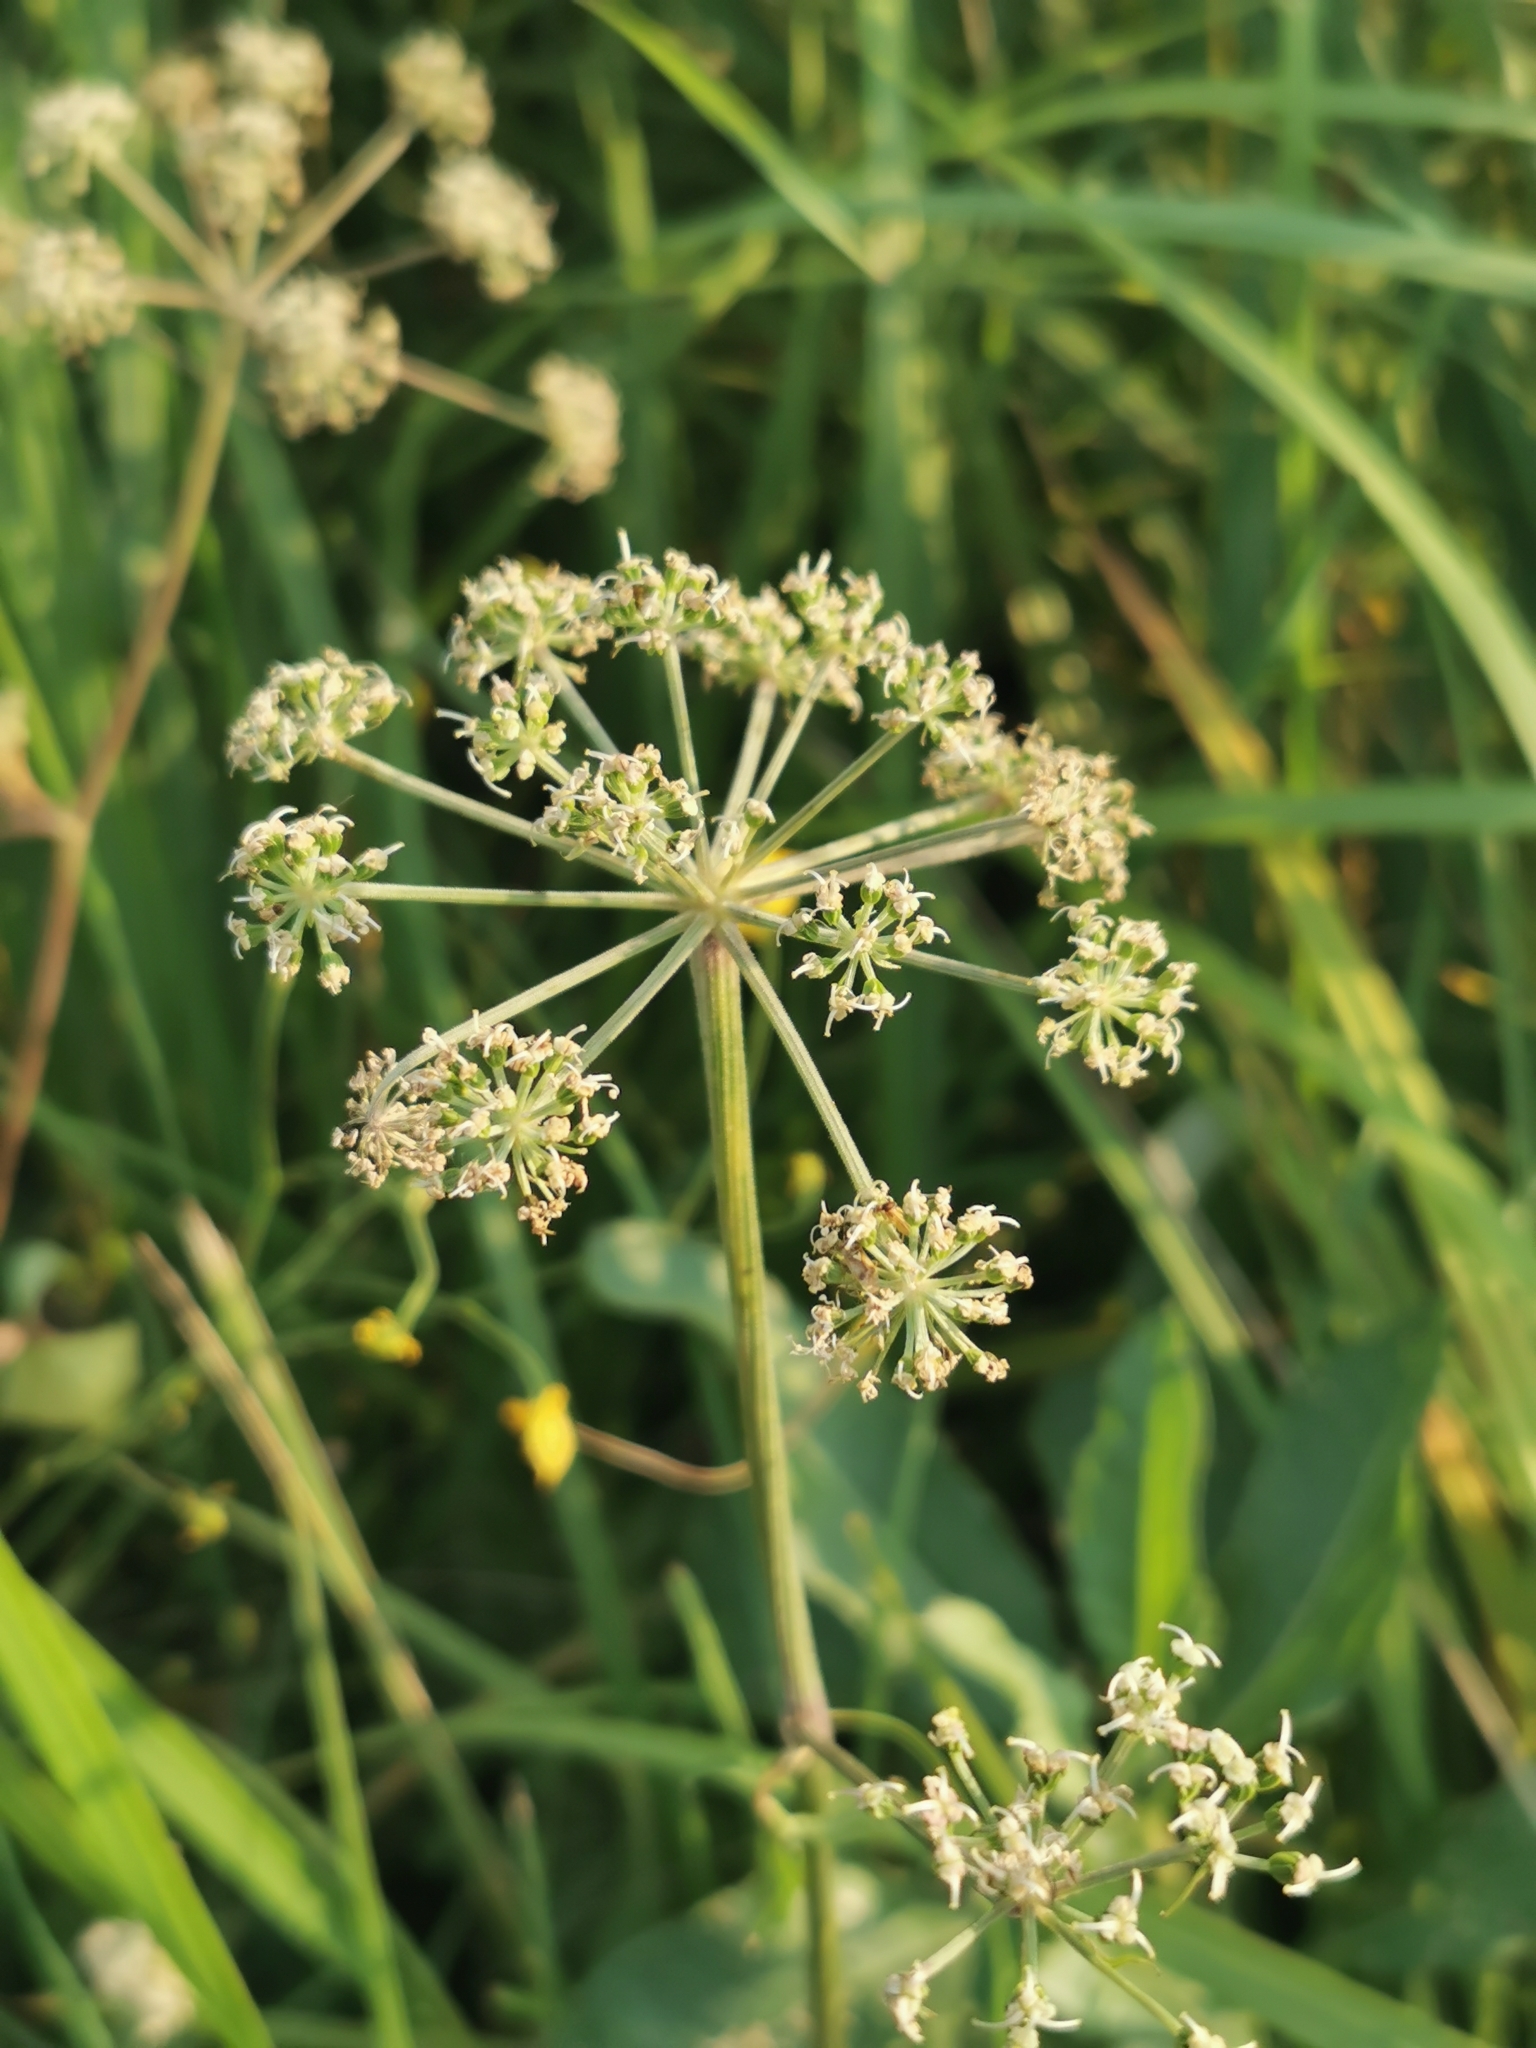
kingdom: Plantae
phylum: Tracheophyta
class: Magnoliopsida
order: Apiales
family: Apiaceae
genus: Cicuta
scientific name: Cicuta virosa
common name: Cowbane
